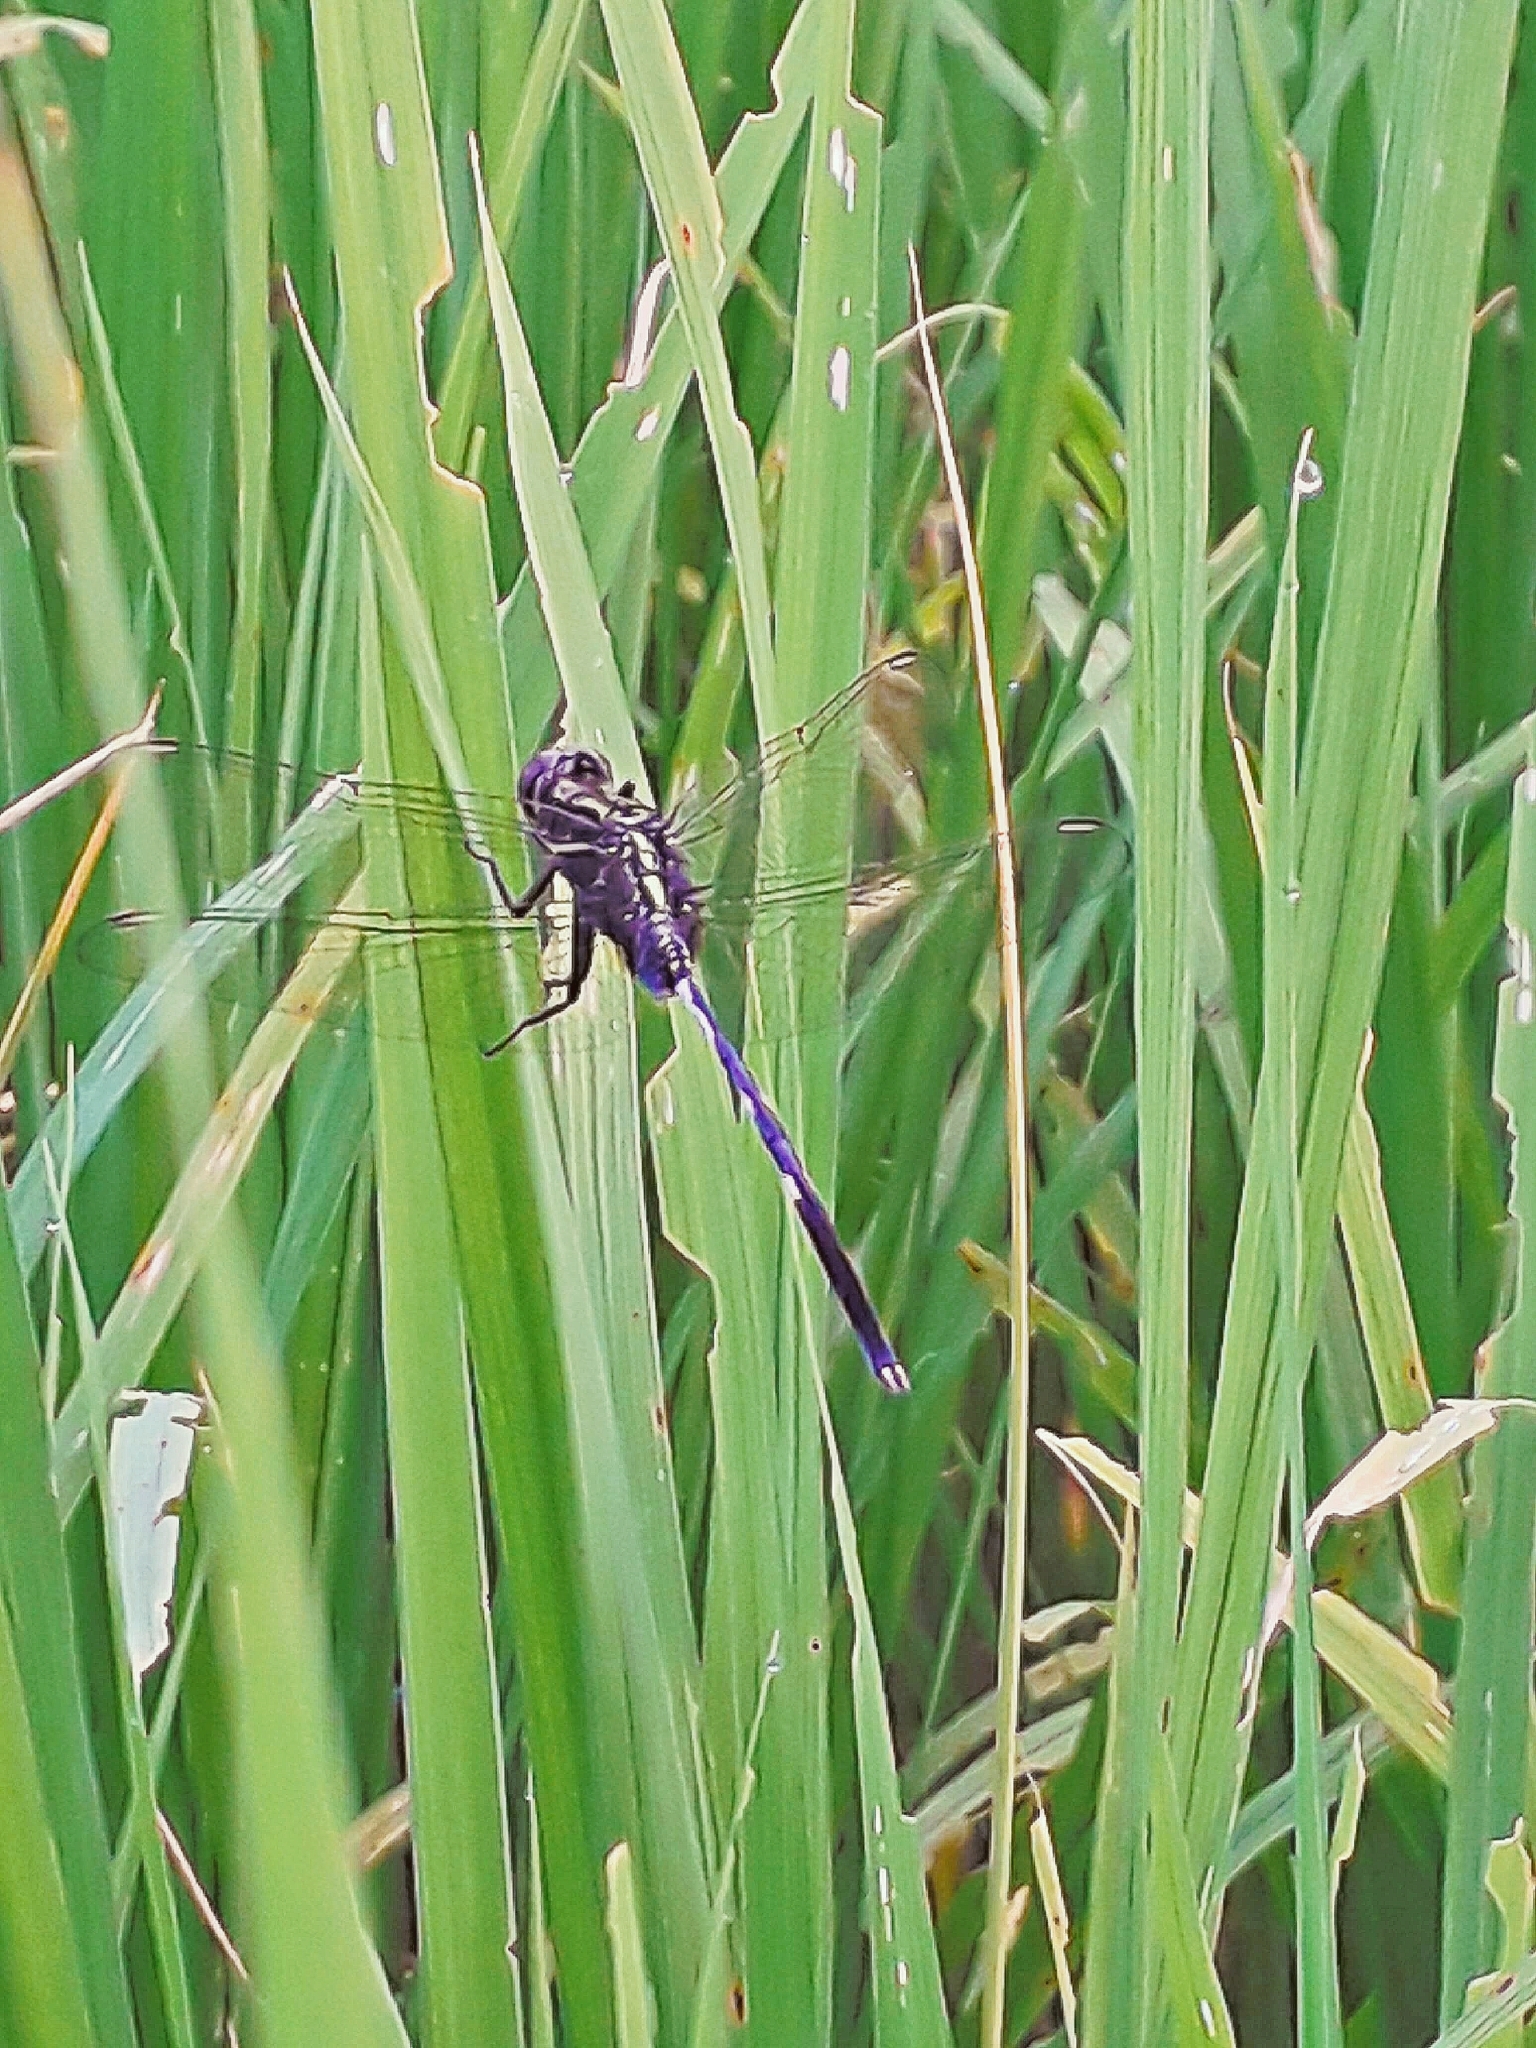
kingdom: Animalia
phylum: Arthropoda
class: Insecta
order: Odonata
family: Libellulidae
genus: Orthetrum
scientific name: Orthetrum sabina
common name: Slender skimmer
